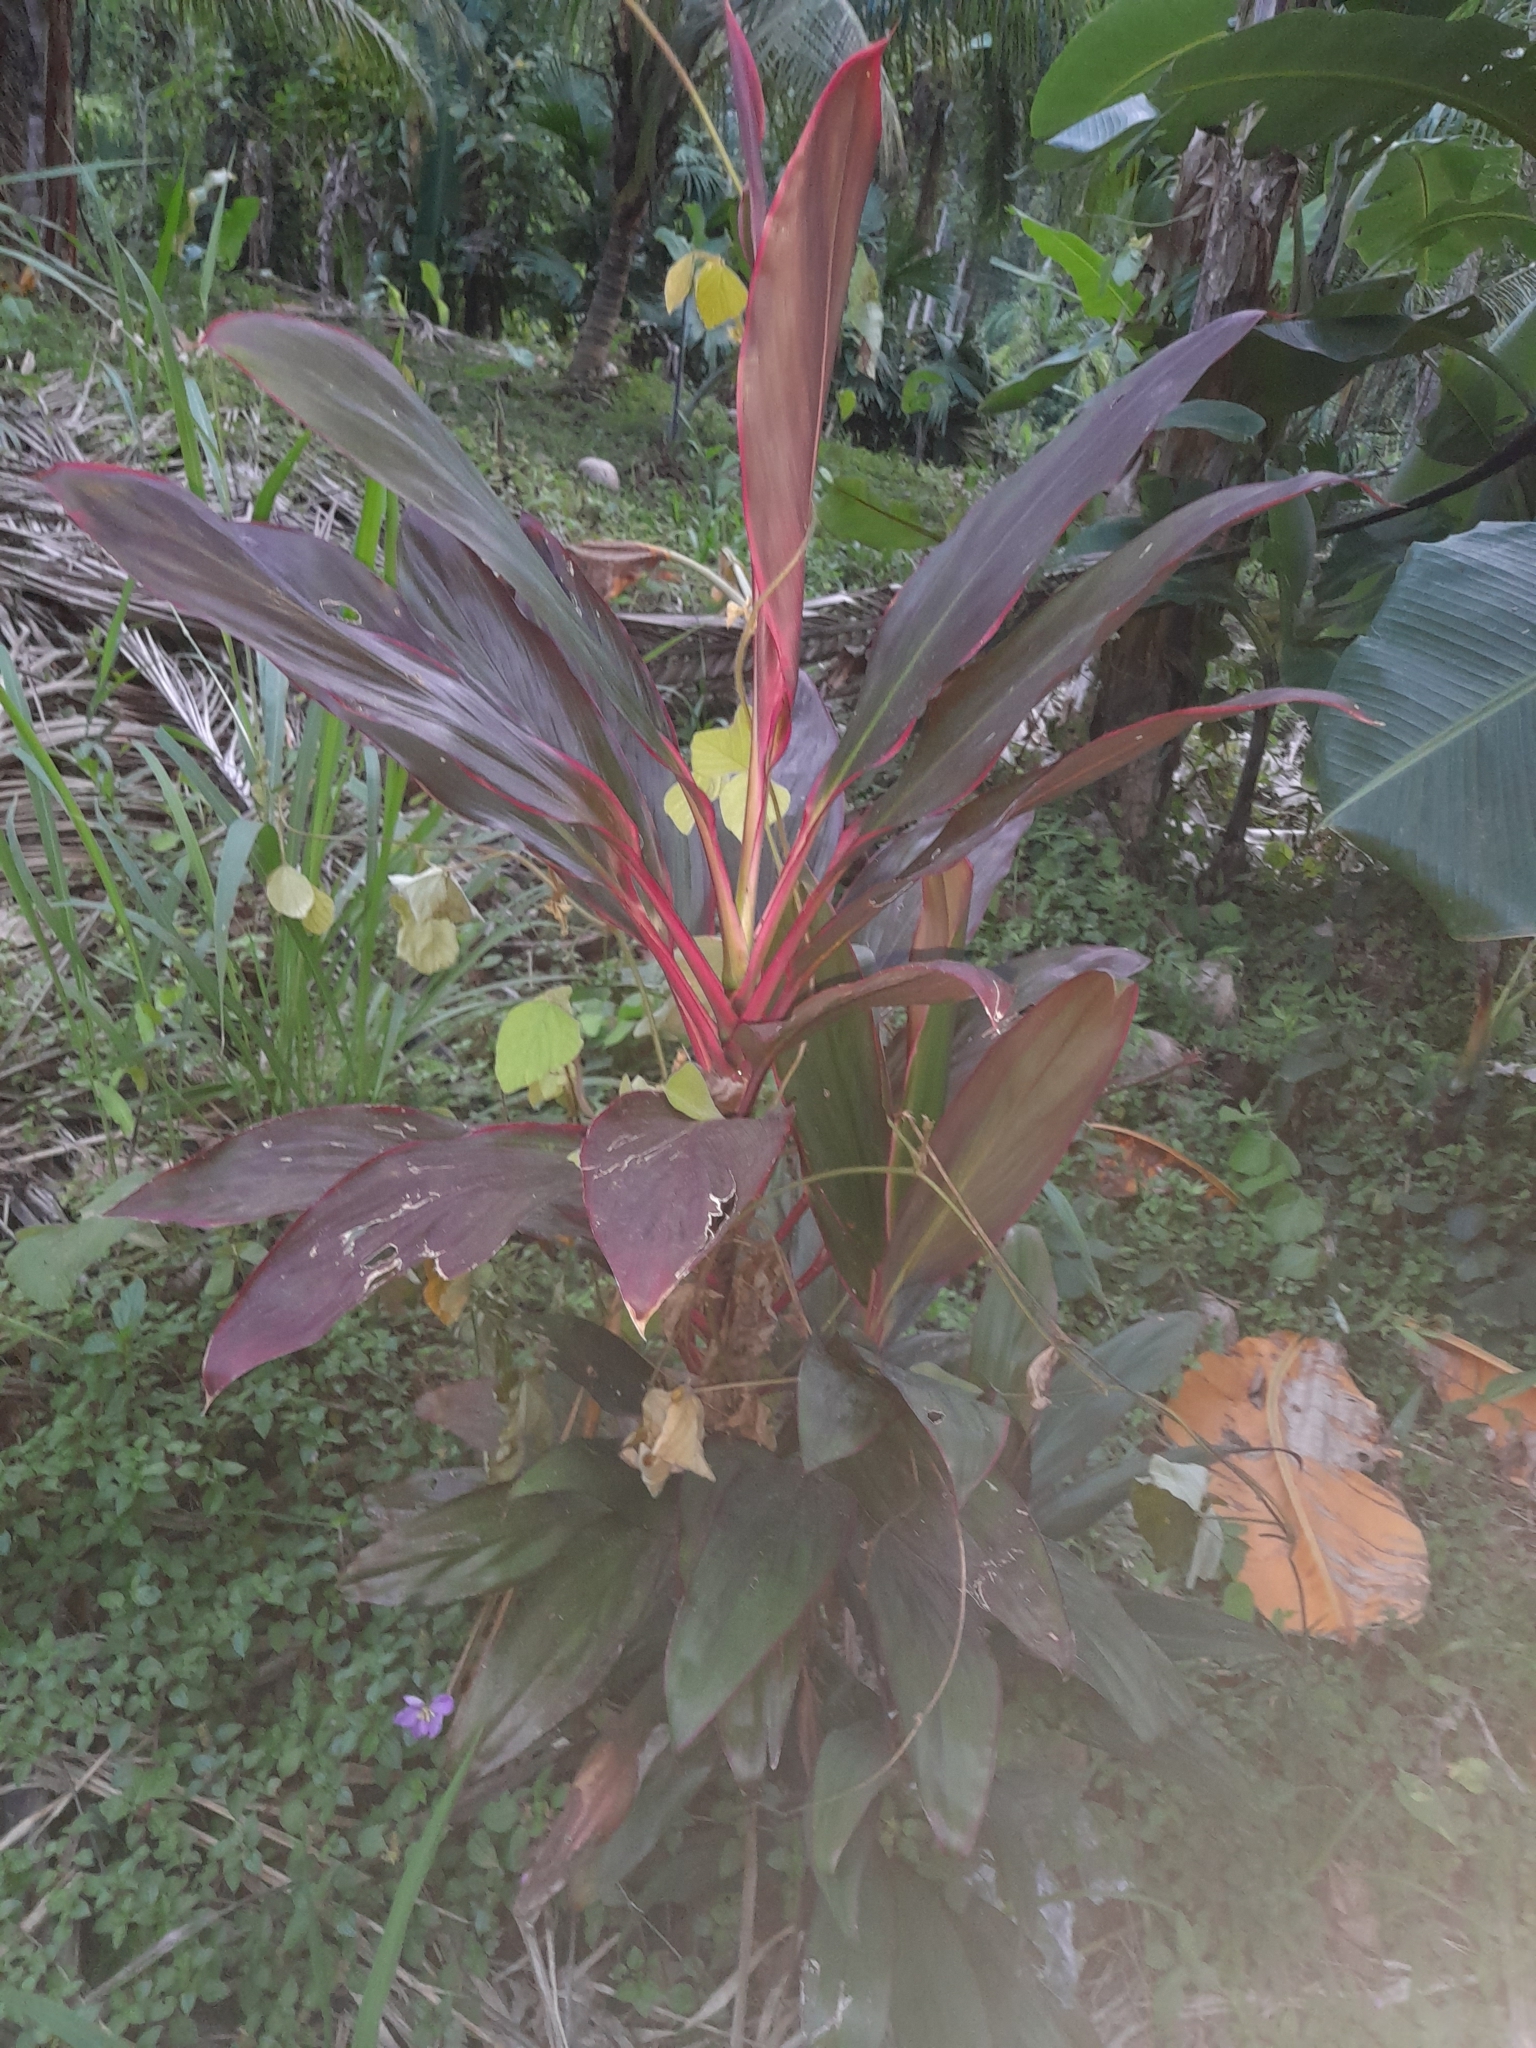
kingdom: Plantae
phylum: Tracheophyta
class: Liliopsida
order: Asparagales
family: Asparagaceae
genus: Cordyline
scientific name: Cordyline fruticosa
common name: Good-luck-plant
